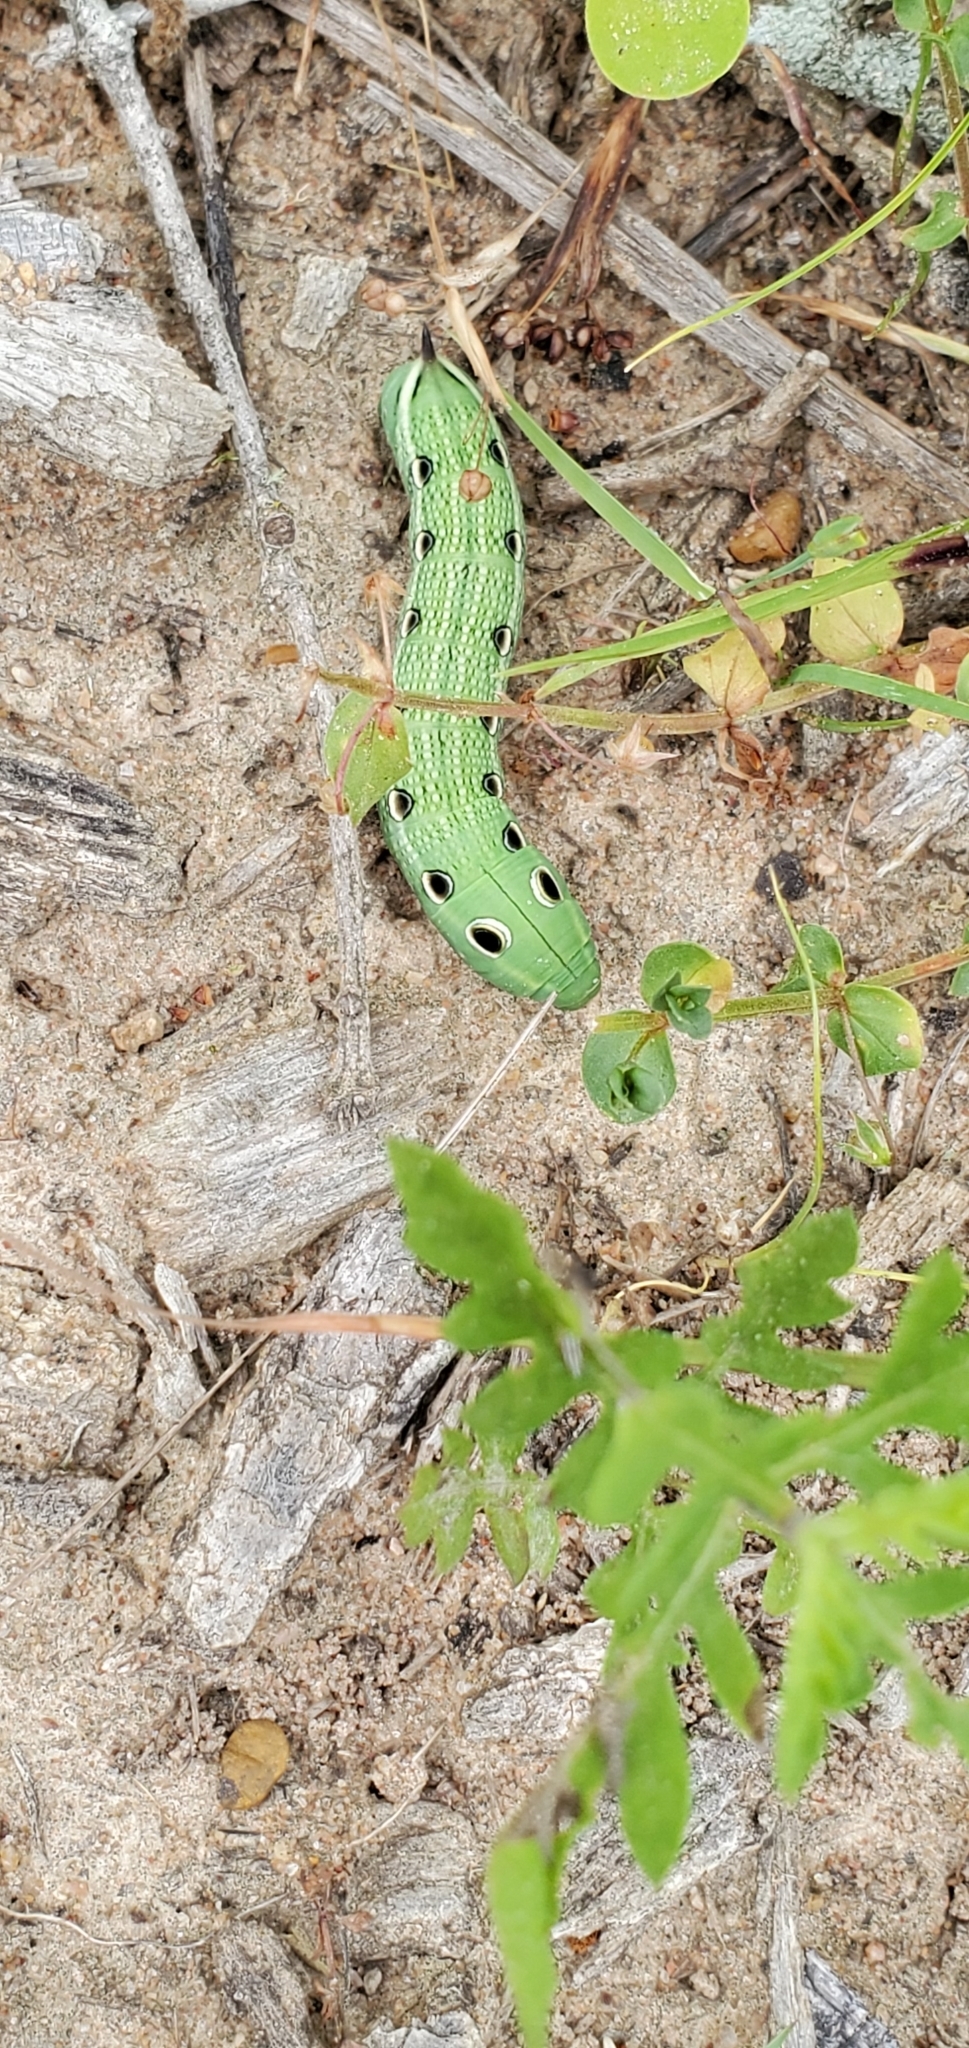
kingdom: Animalia
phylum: Arthropoda
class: Insecta
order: Lepidoptera
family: Sphingidae
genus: Xylophanes
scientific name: Xylophanes tersa
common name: Tersa sphinx
